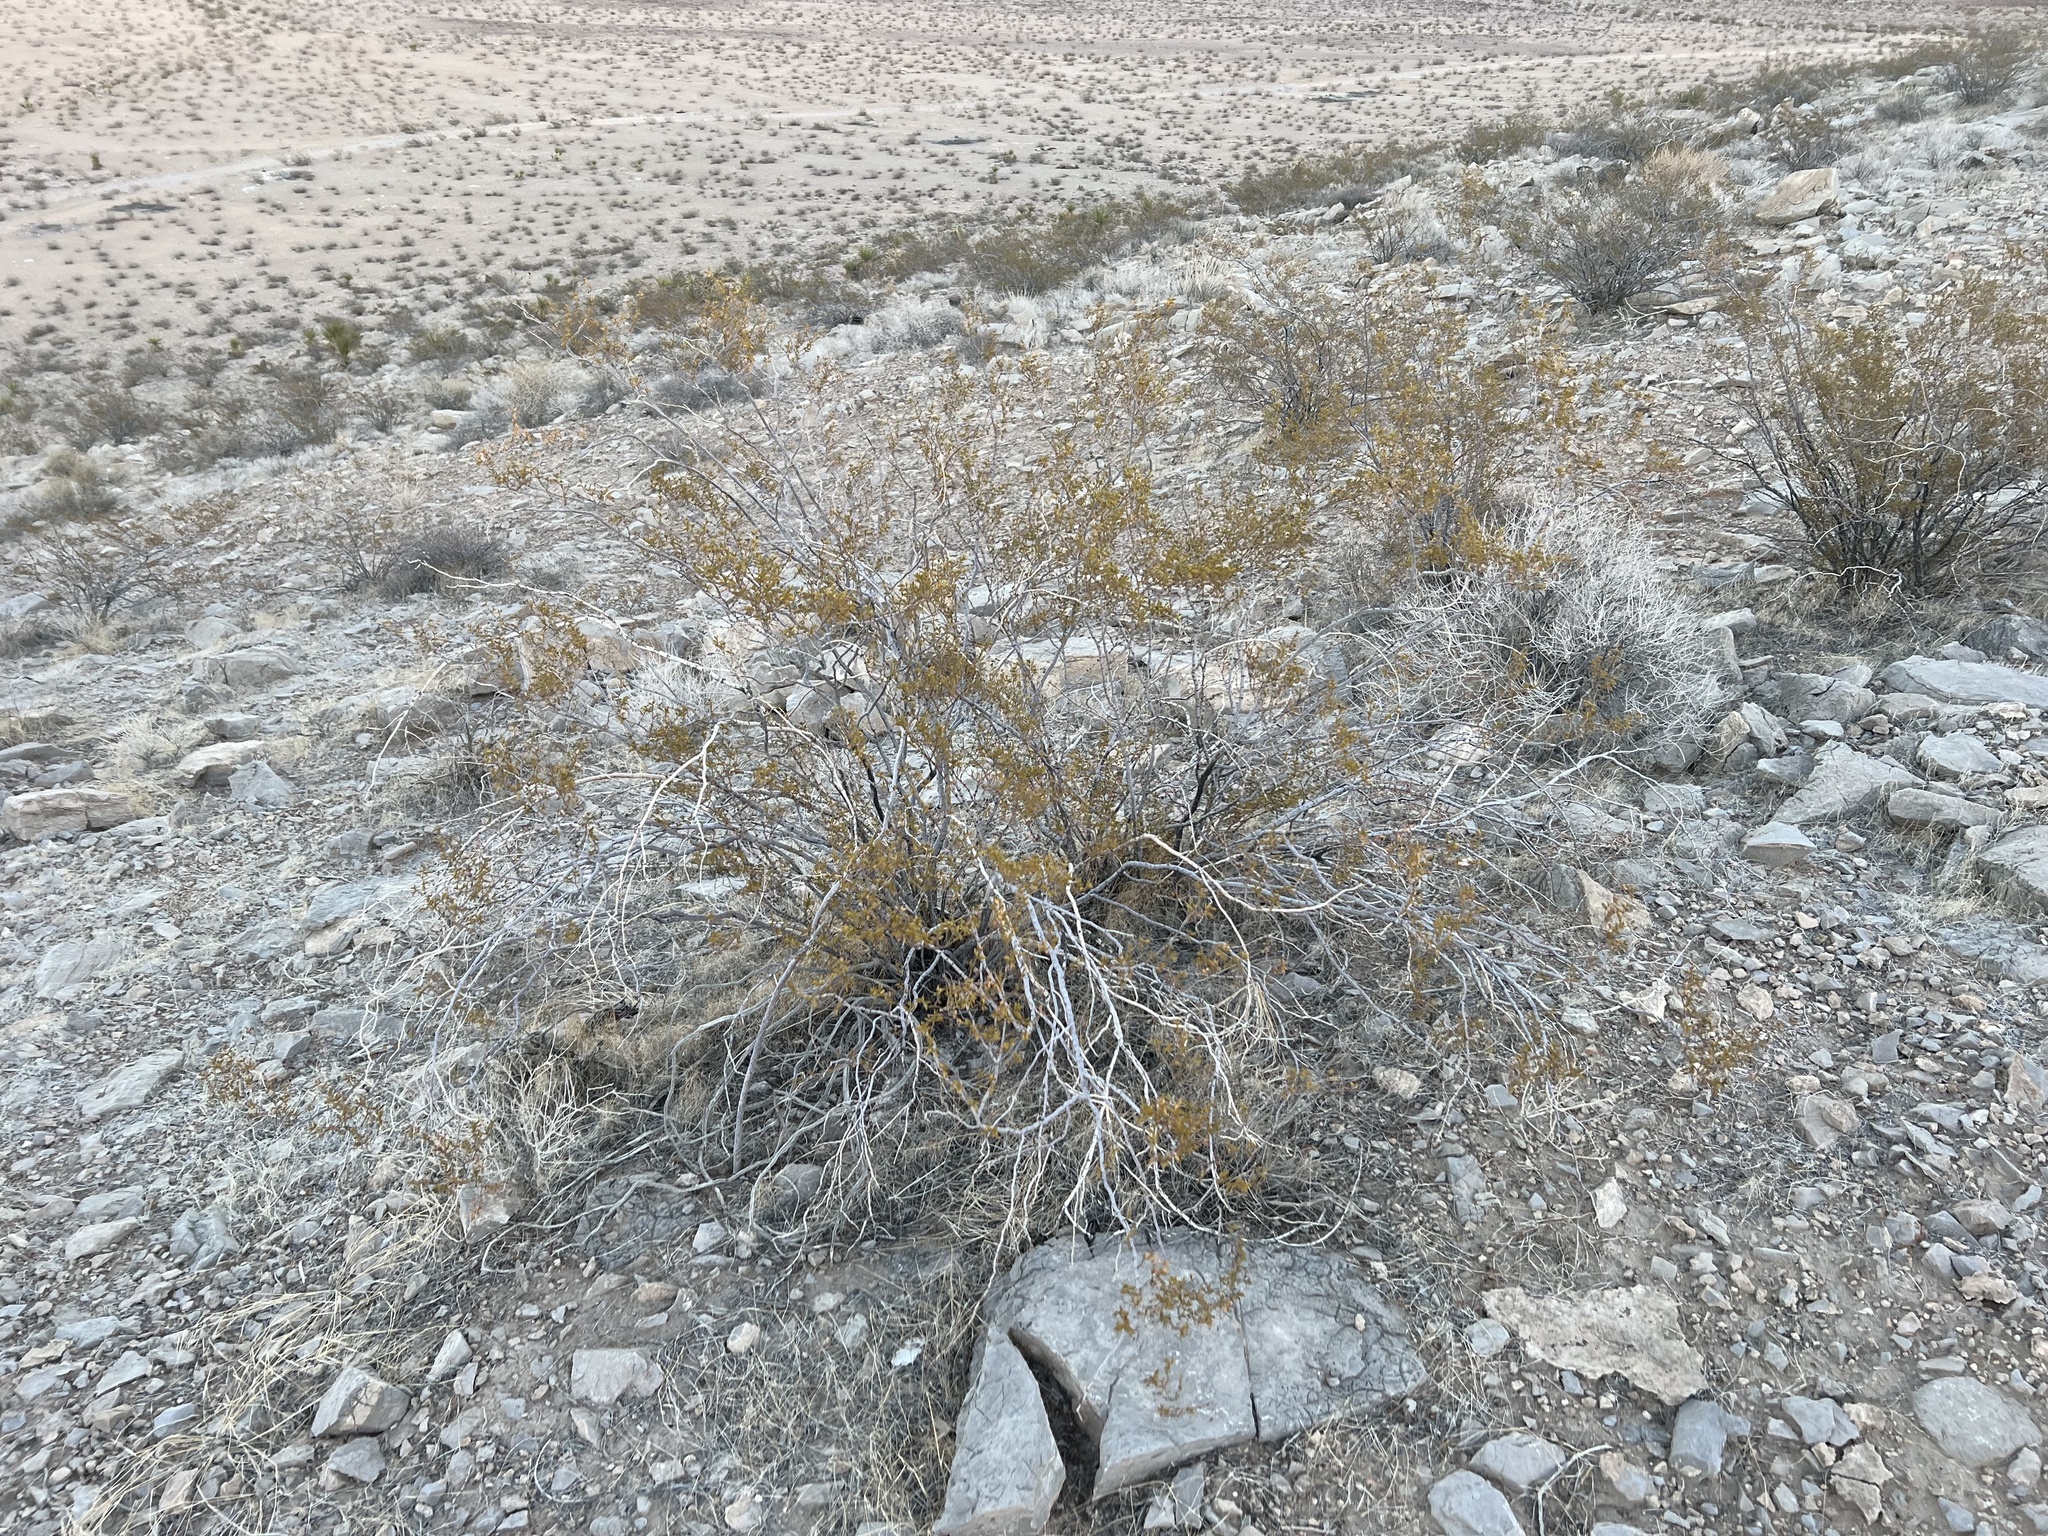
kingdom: Plantae
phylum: Tracheophyta
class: Magnoliopsida
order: Zygophyllales
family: Zygophyllaceae
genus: Larrea
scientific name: Larrea tridentata
